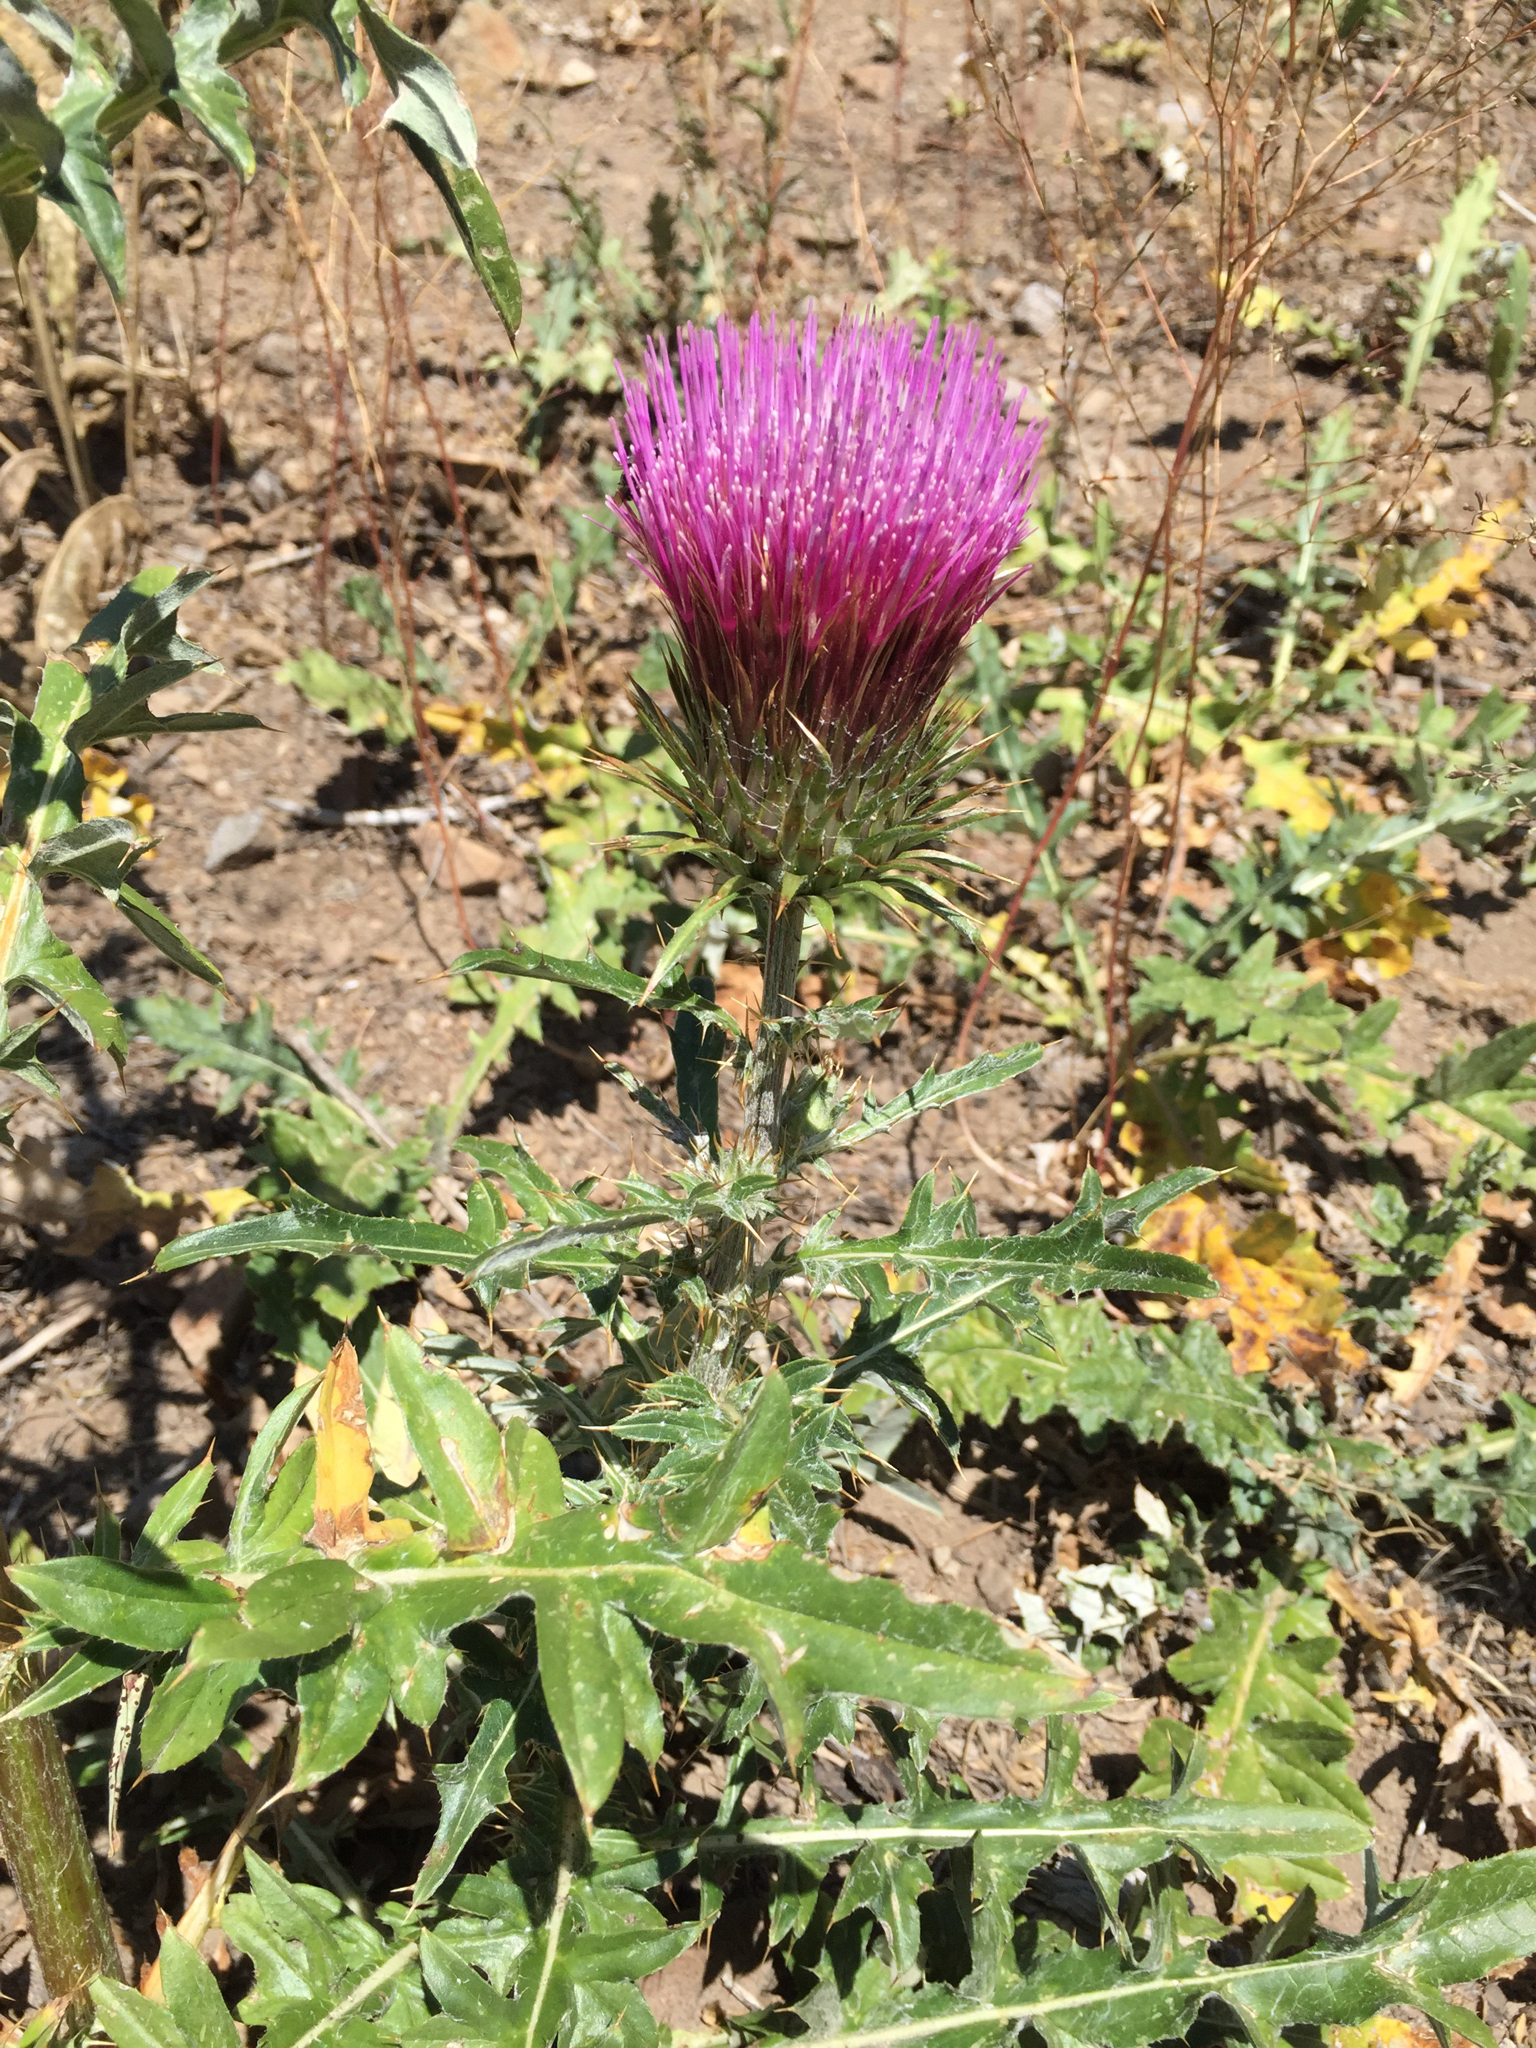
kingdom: Plantae
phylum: Tracheophyta
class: Magnoliopsida
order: Asterales
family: Asteraceae
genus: Cirsium
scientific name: Cirsium andersonii
